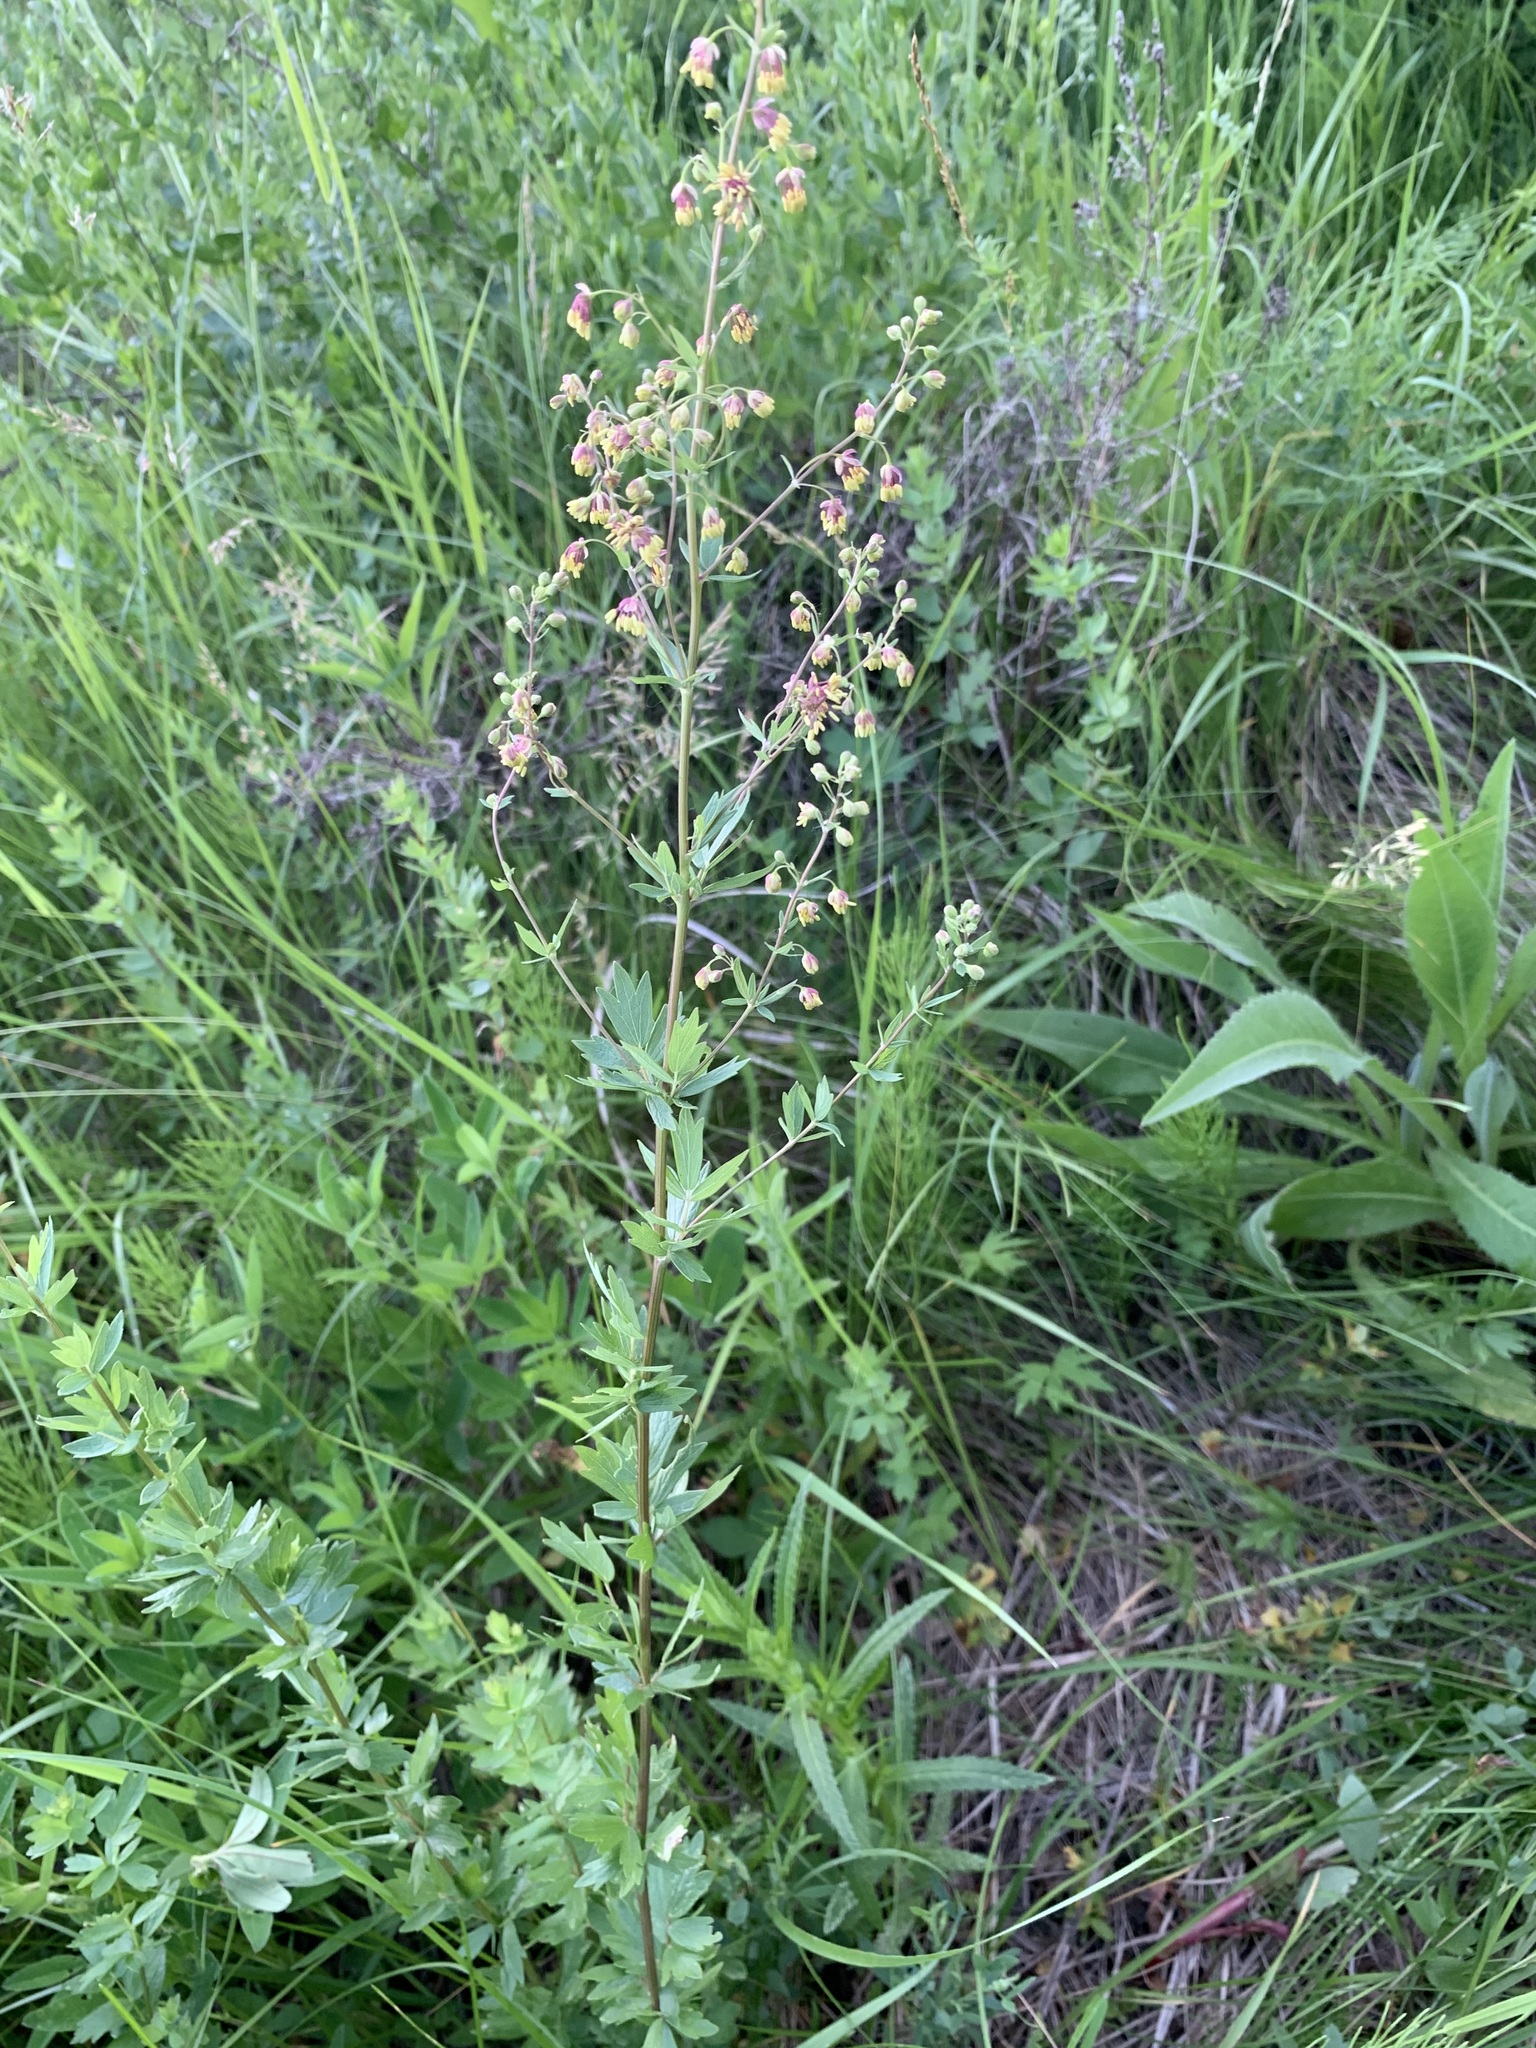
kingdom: Plantae
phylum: Tracheophyta
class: Magnoliopsida
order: Ranunculales
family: Ranunculaceae
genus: Thalictrum
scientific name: Thalictrum minus
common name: Lesser meadow-rue
